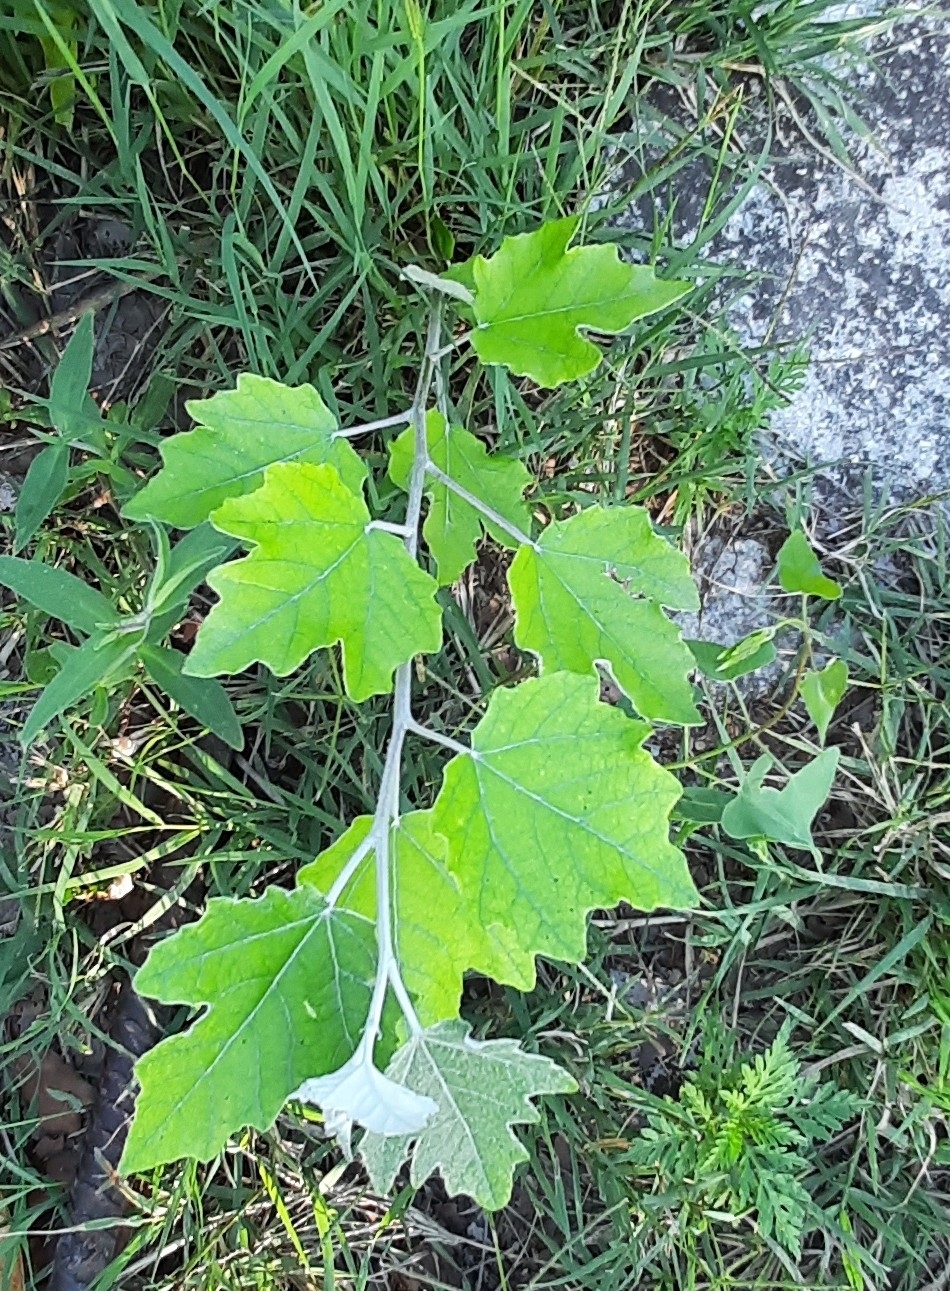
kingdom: Plantae
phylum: Tracheophyta
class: Magnoliopsida
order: Malpighiales
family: Salicaceae
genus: Populus
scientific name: Populus alba
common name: White poplar
